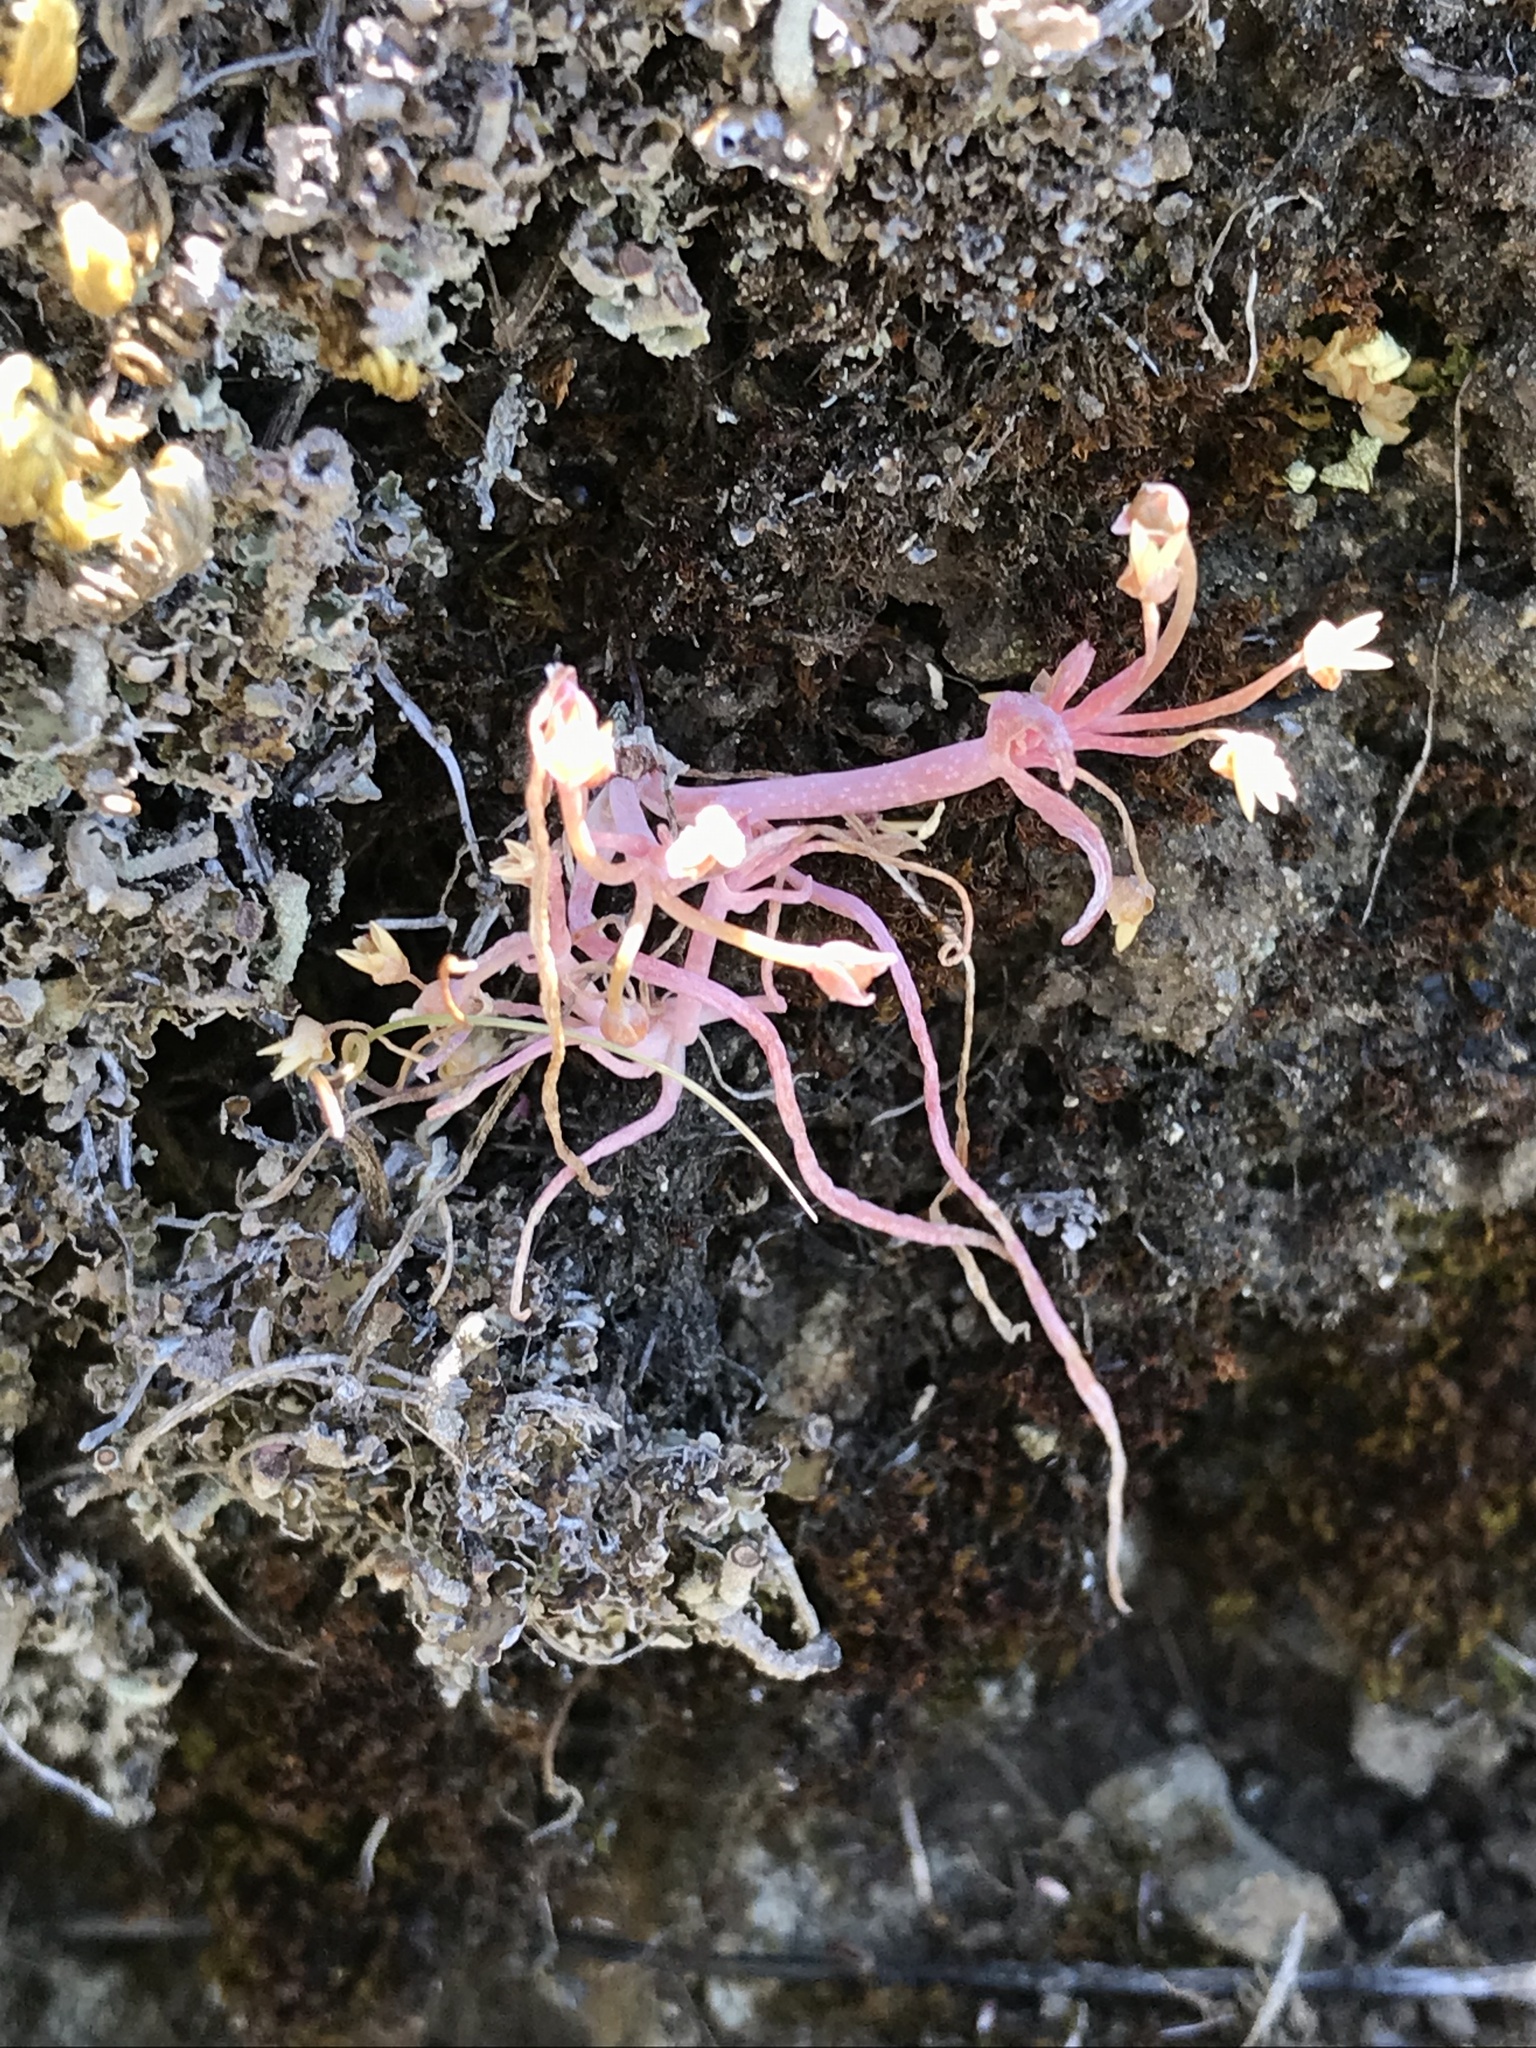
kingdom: Plantae
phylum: Tracheophyta
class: Magnoliopsida
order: Caryophyllales
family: Montiaceae
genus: Claytonia
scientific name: Claytonia exigua
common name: Pale spring beauty
